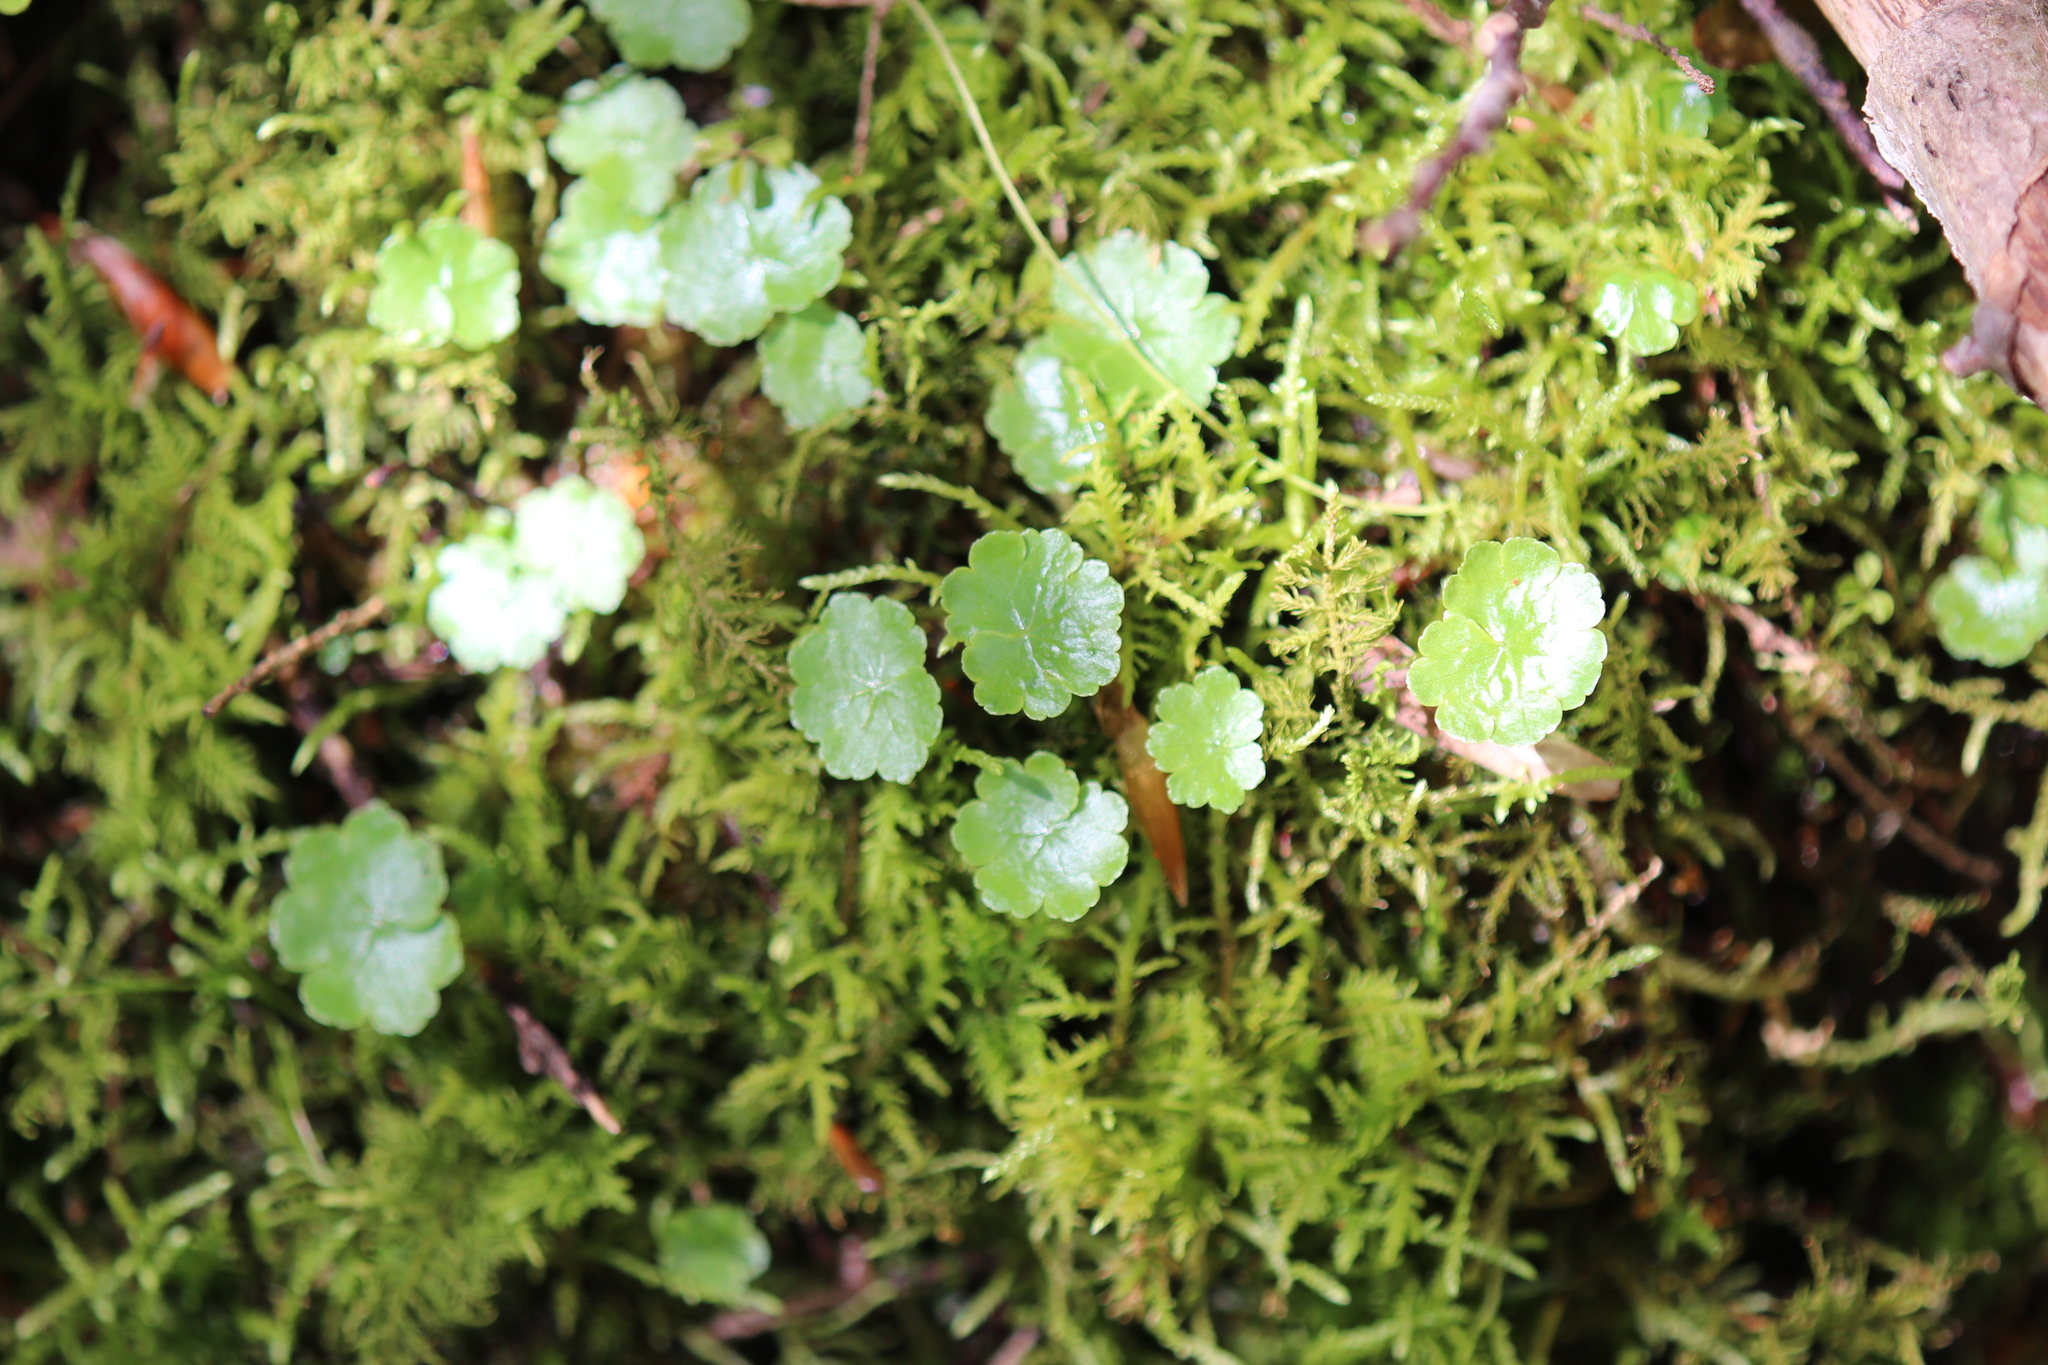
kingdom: Plantae
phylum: Tracheophyta
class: Magnoliopsida
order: Apiales
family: Araliaceae
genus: Hydrocotyle
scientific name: Hydrocotyle americana
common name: American water-pennywort
